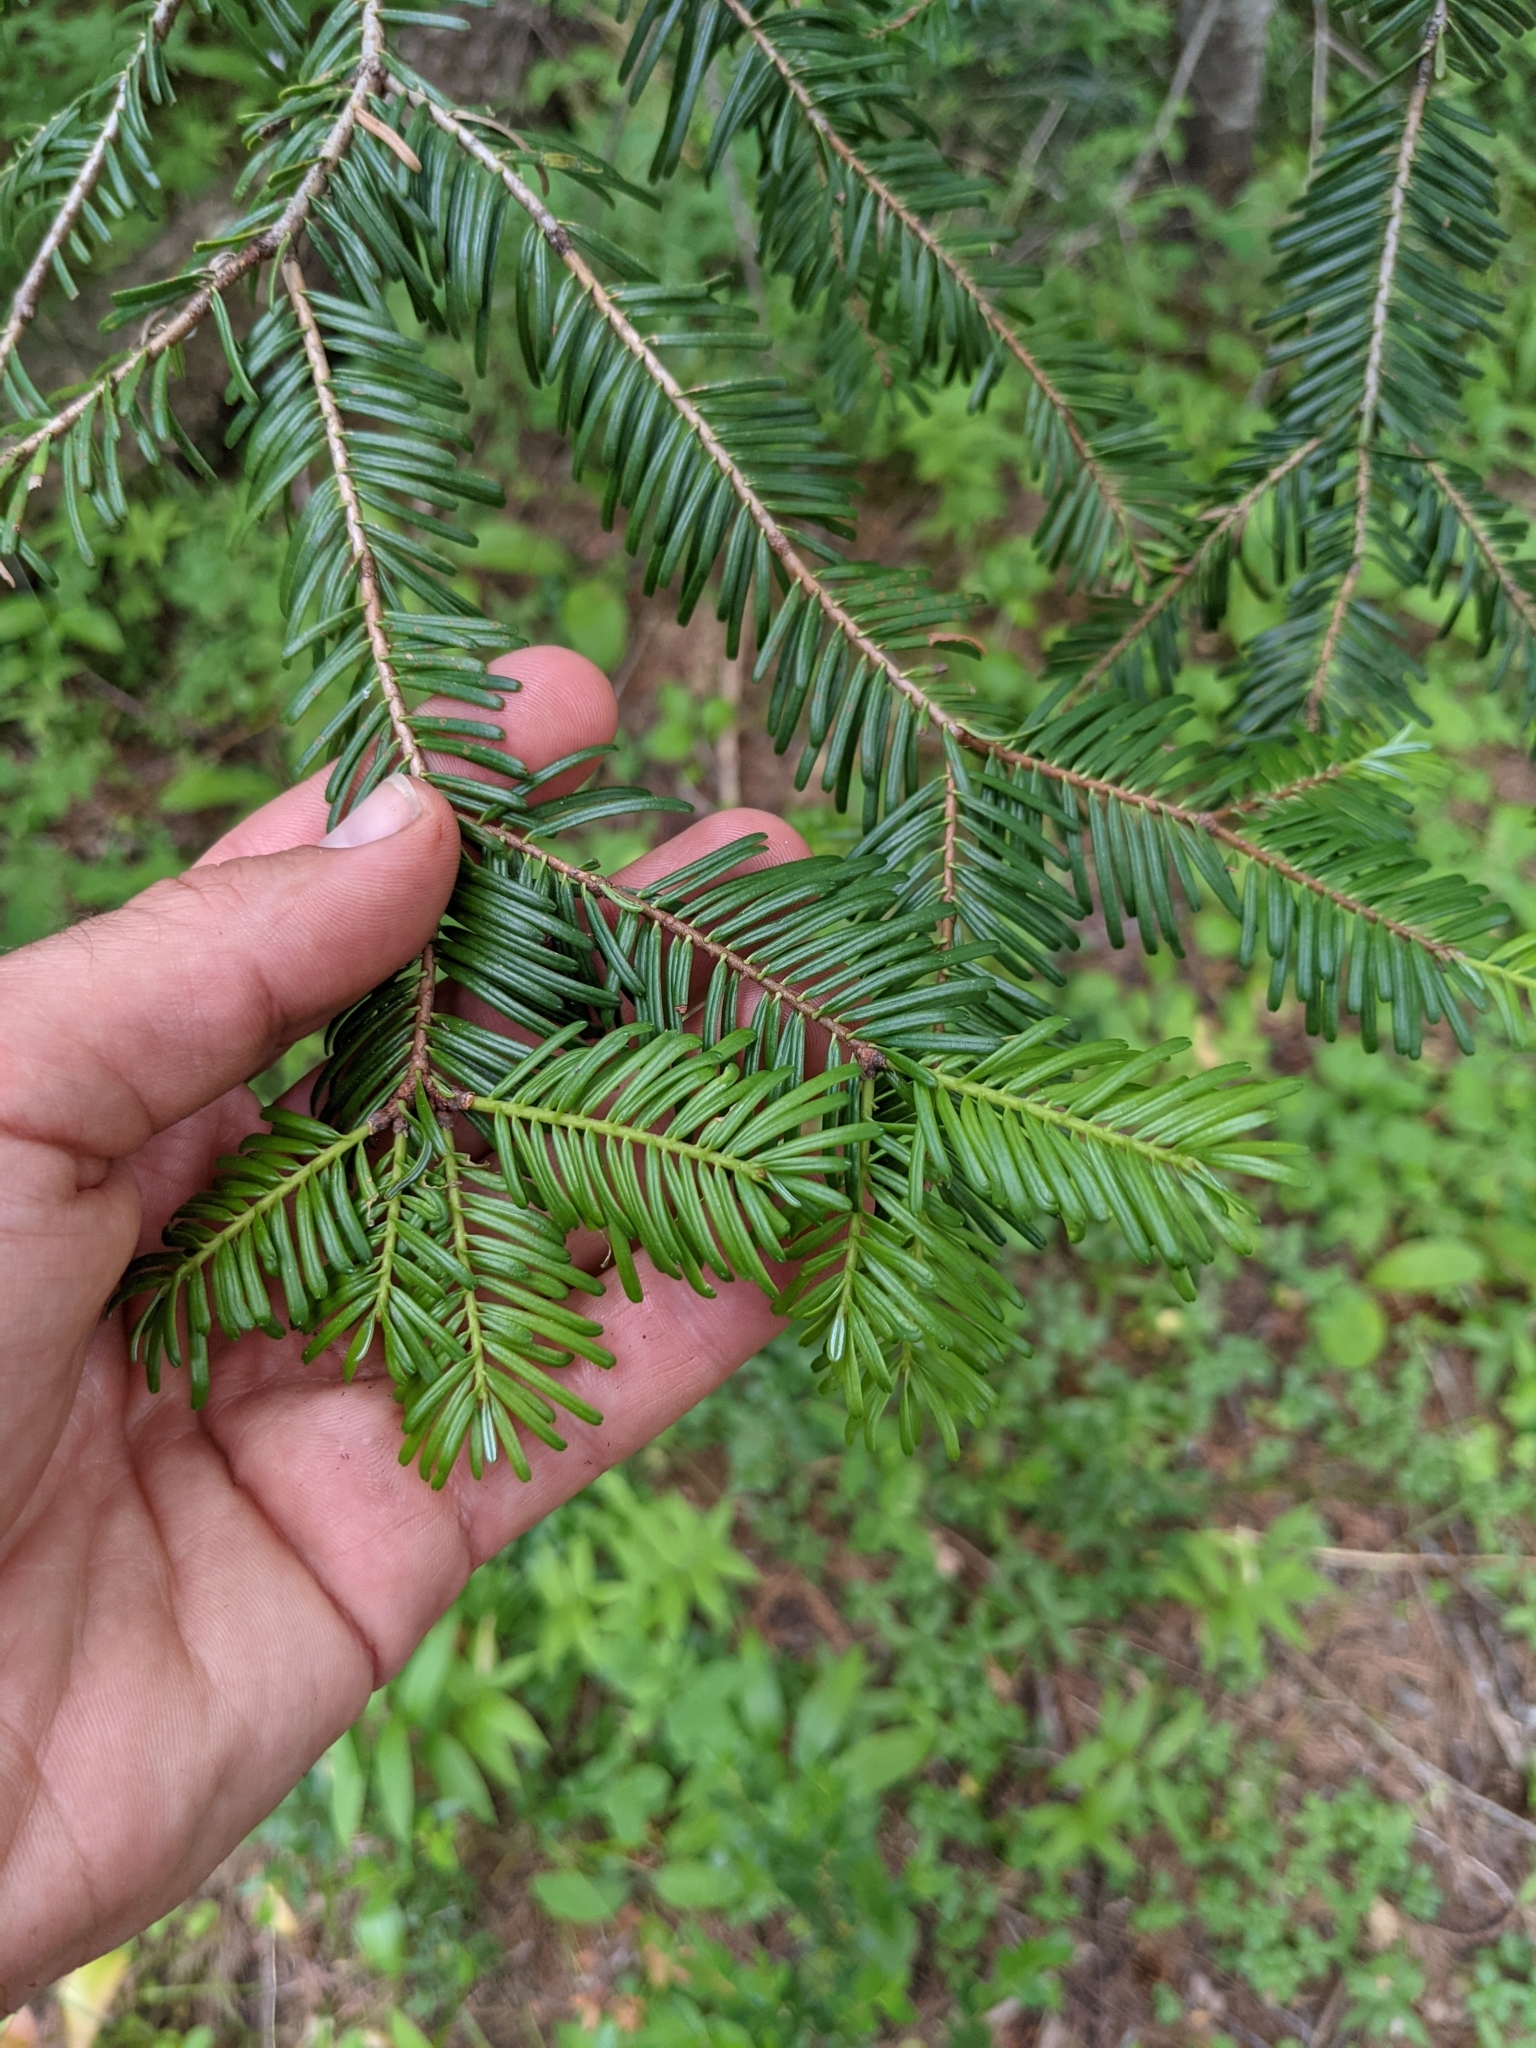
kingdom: Plantae
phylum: Tracheophyta
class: Pinopsida
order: Pinales
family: Pinaceae
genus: Abies
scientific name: Abies grandis
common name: Giant fir
